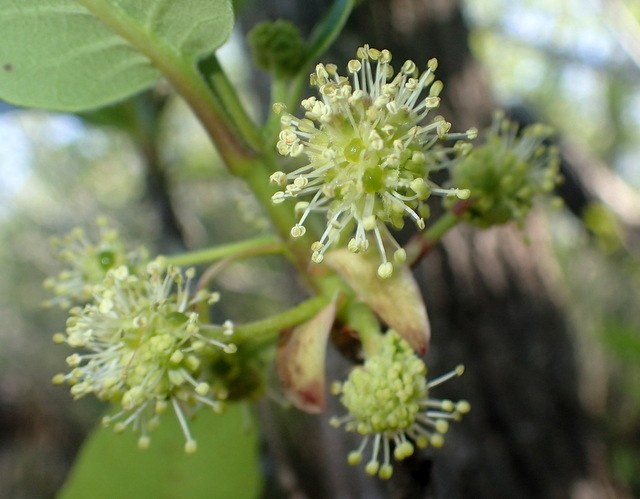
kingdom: Plantae
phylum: Tracheophyta
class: Magnoliopsida
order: Cornales
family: Nyssaceae
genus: Nyssa
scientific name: Nyssa ogeche
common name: Ogeechee tupelo
